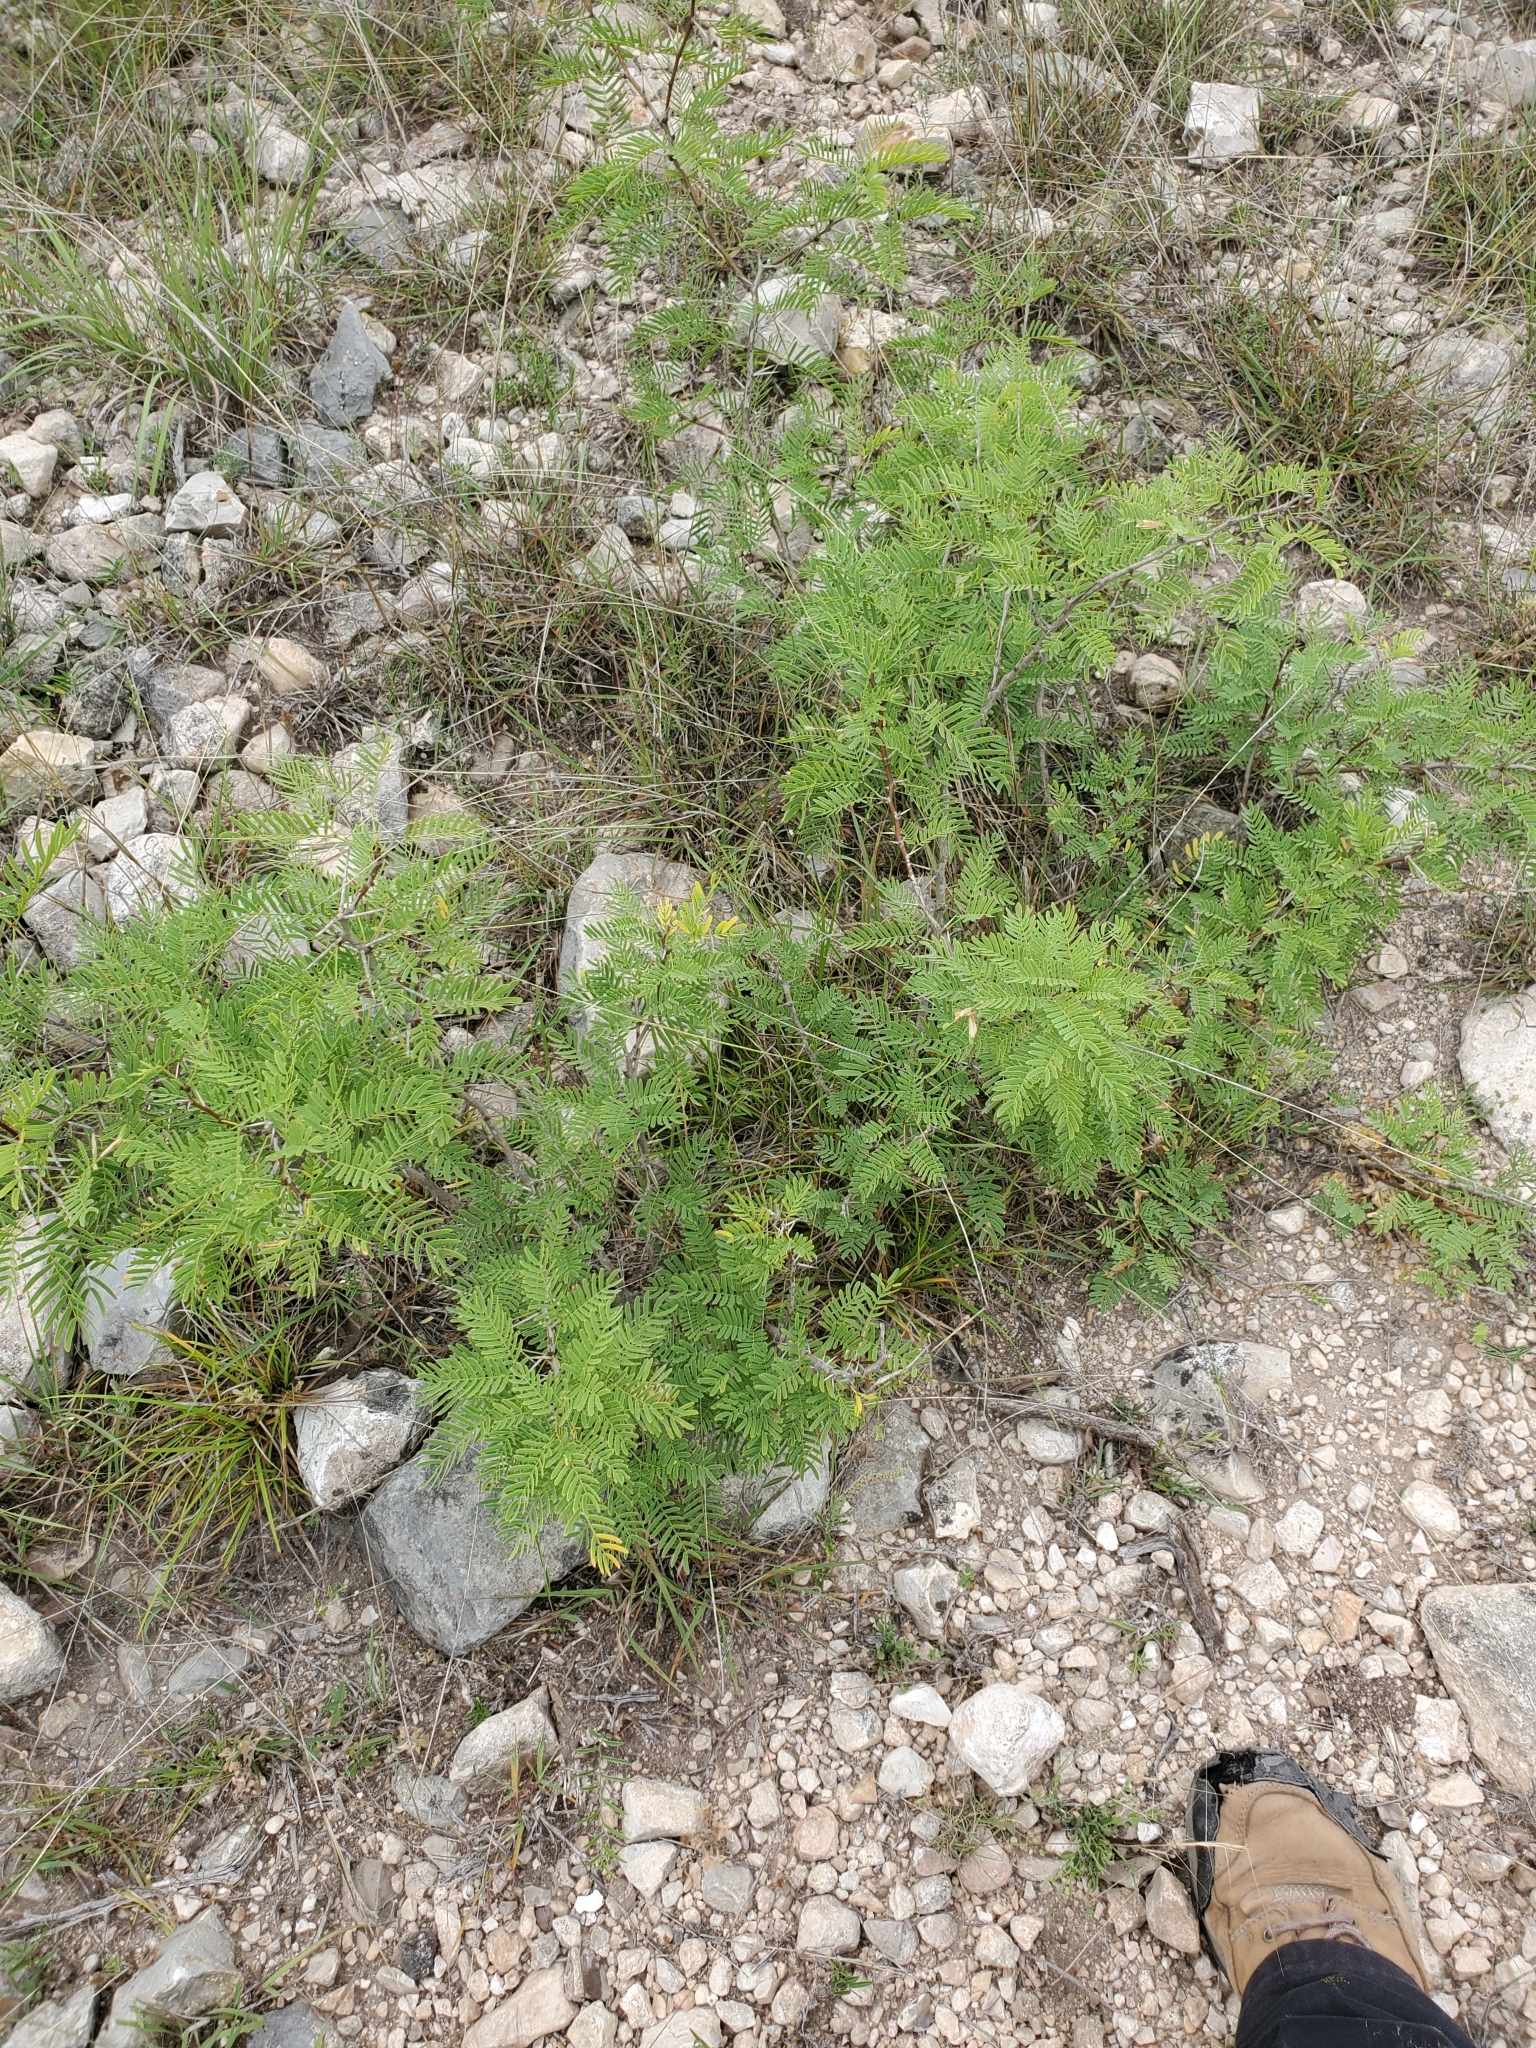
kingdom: Plantae
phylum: Tracheophyta
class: Magnoliopsida
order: Fabales
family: Fabaceae
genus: Prosopis
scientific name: Prosopis glandulosa
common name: Honey mesquite
